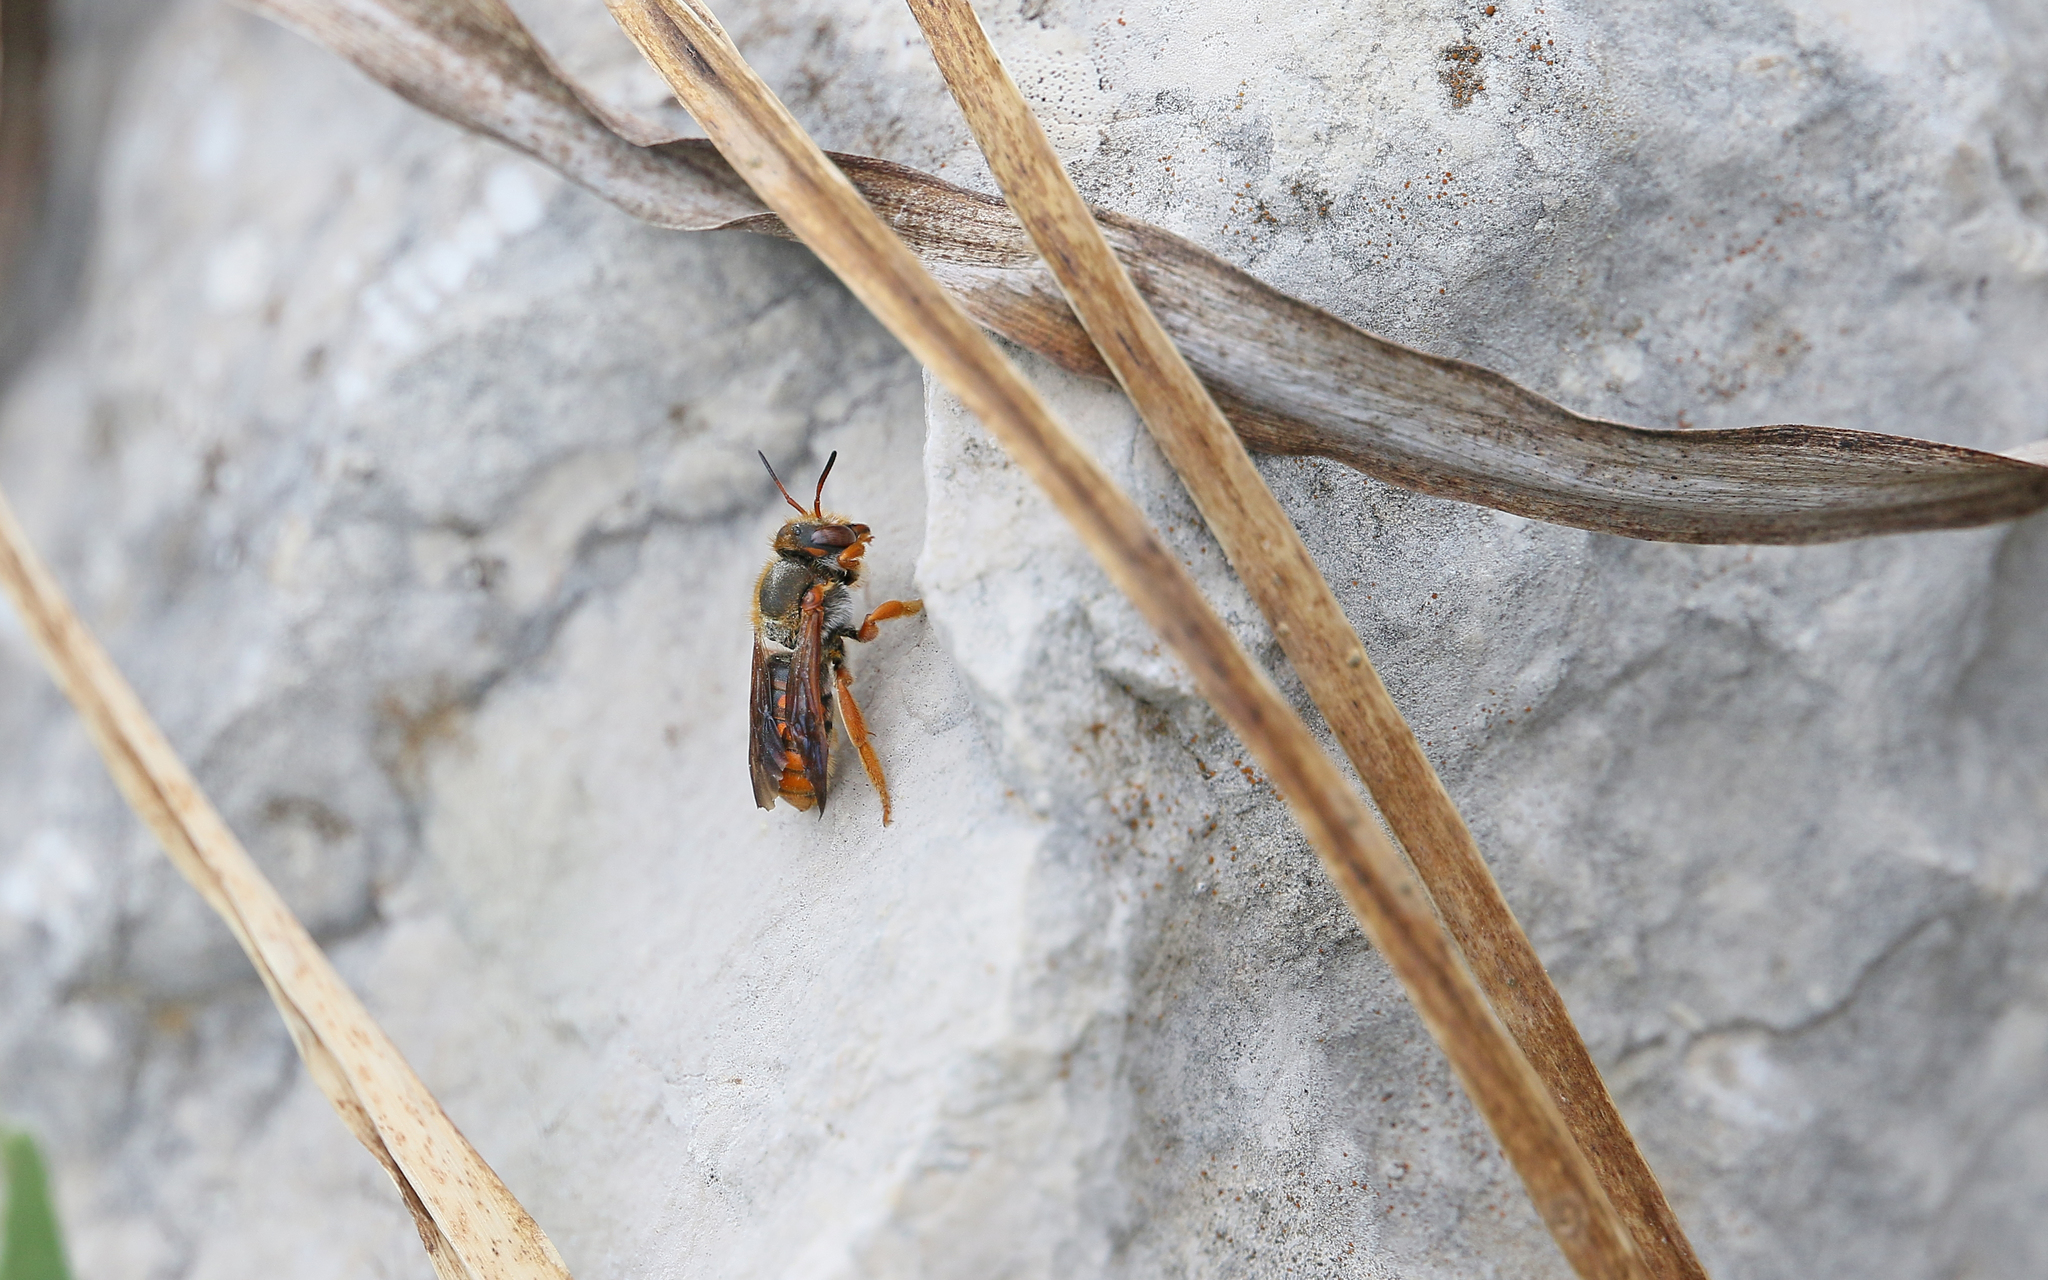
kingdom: Animalia
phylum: Arthropoda
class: Insecta
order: Hymenoptera
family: Megachilidae
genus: Rhodanthidium
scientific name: Rhodanthidium sticticum
